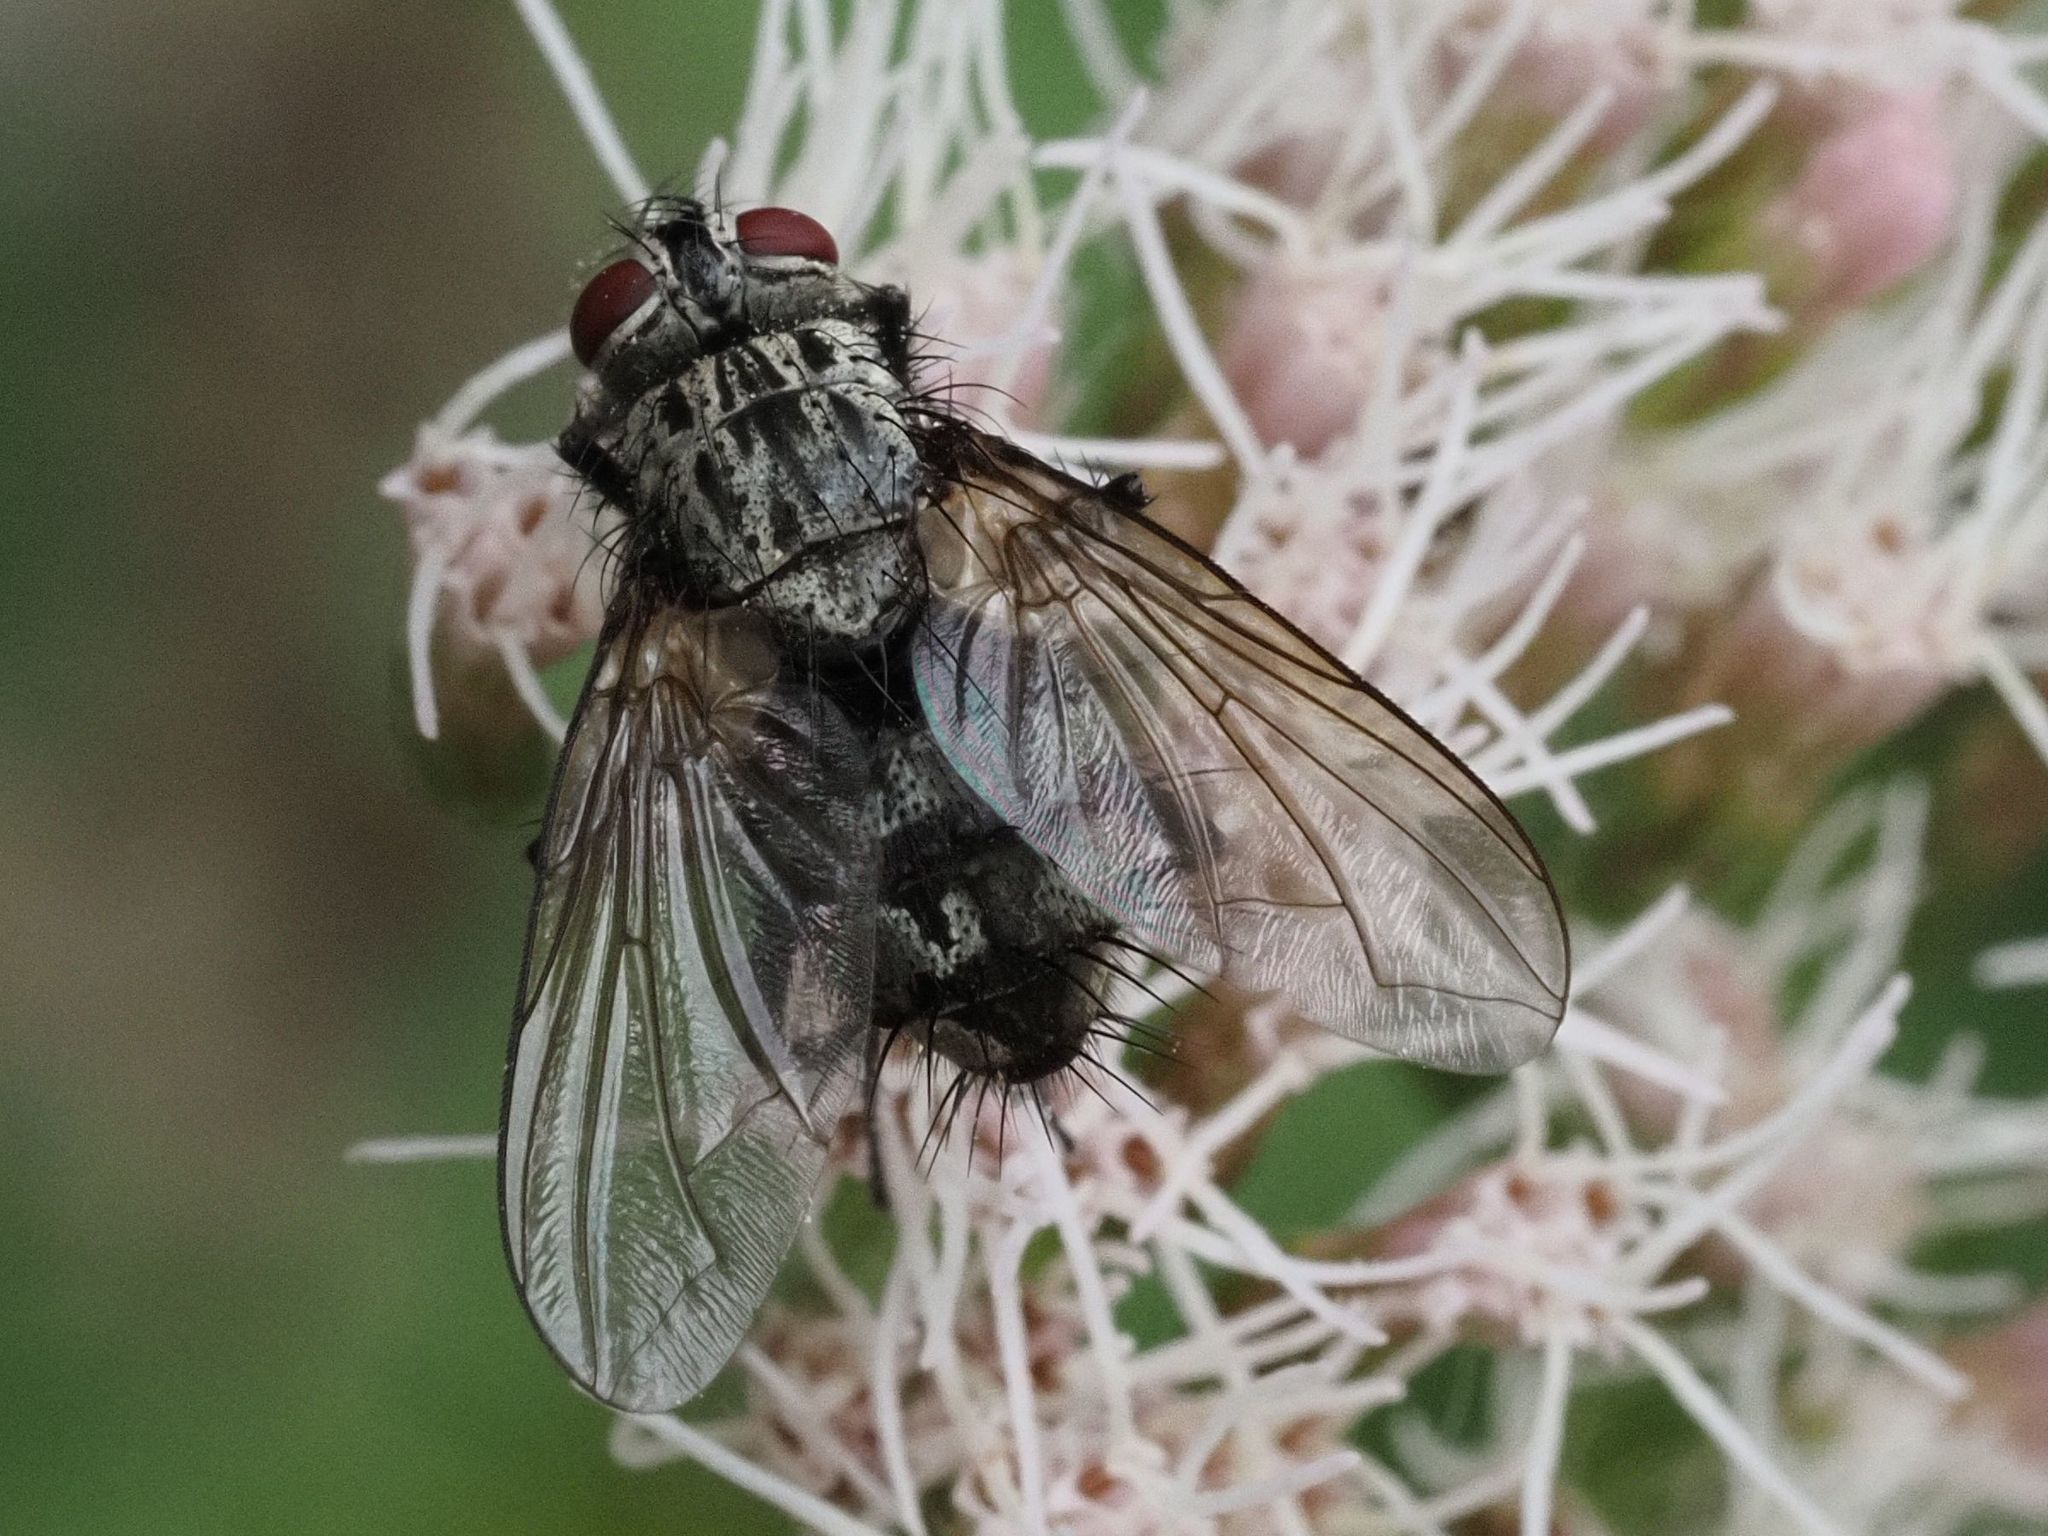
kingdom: Animalia
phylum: Arthropoda
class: Insecta
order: Diptera
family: Tachinidae
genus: Dinera
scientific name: Dinera ferina
